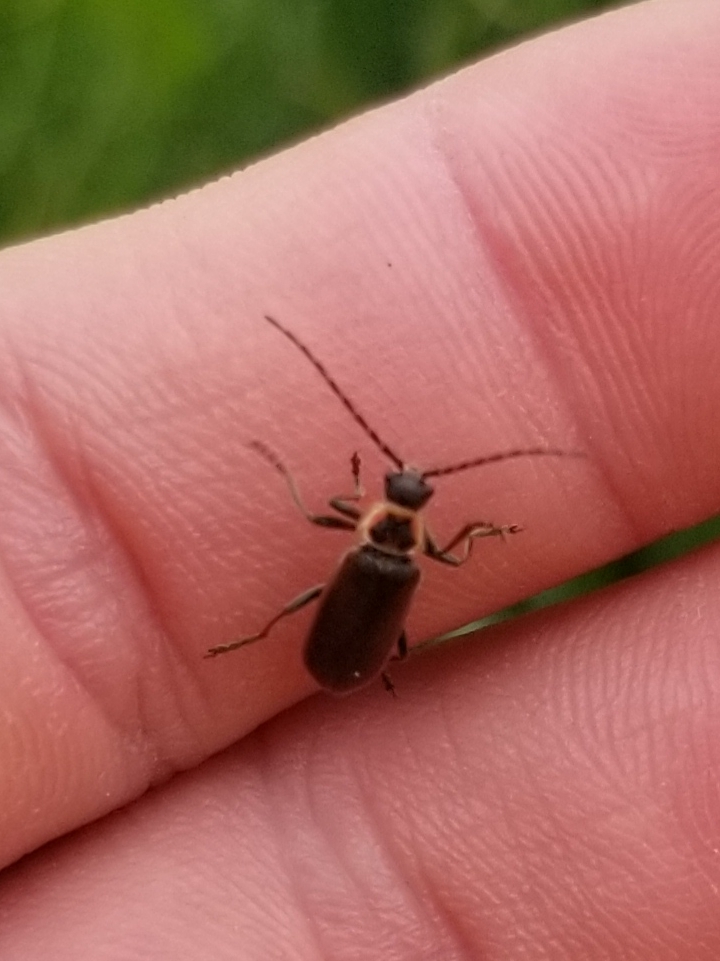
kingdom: Animalia
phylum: Arthropoda
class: Insecta
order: Coleoptera
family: Cantharidae
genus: Atalantycha
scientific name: Atalantycha dentigera
